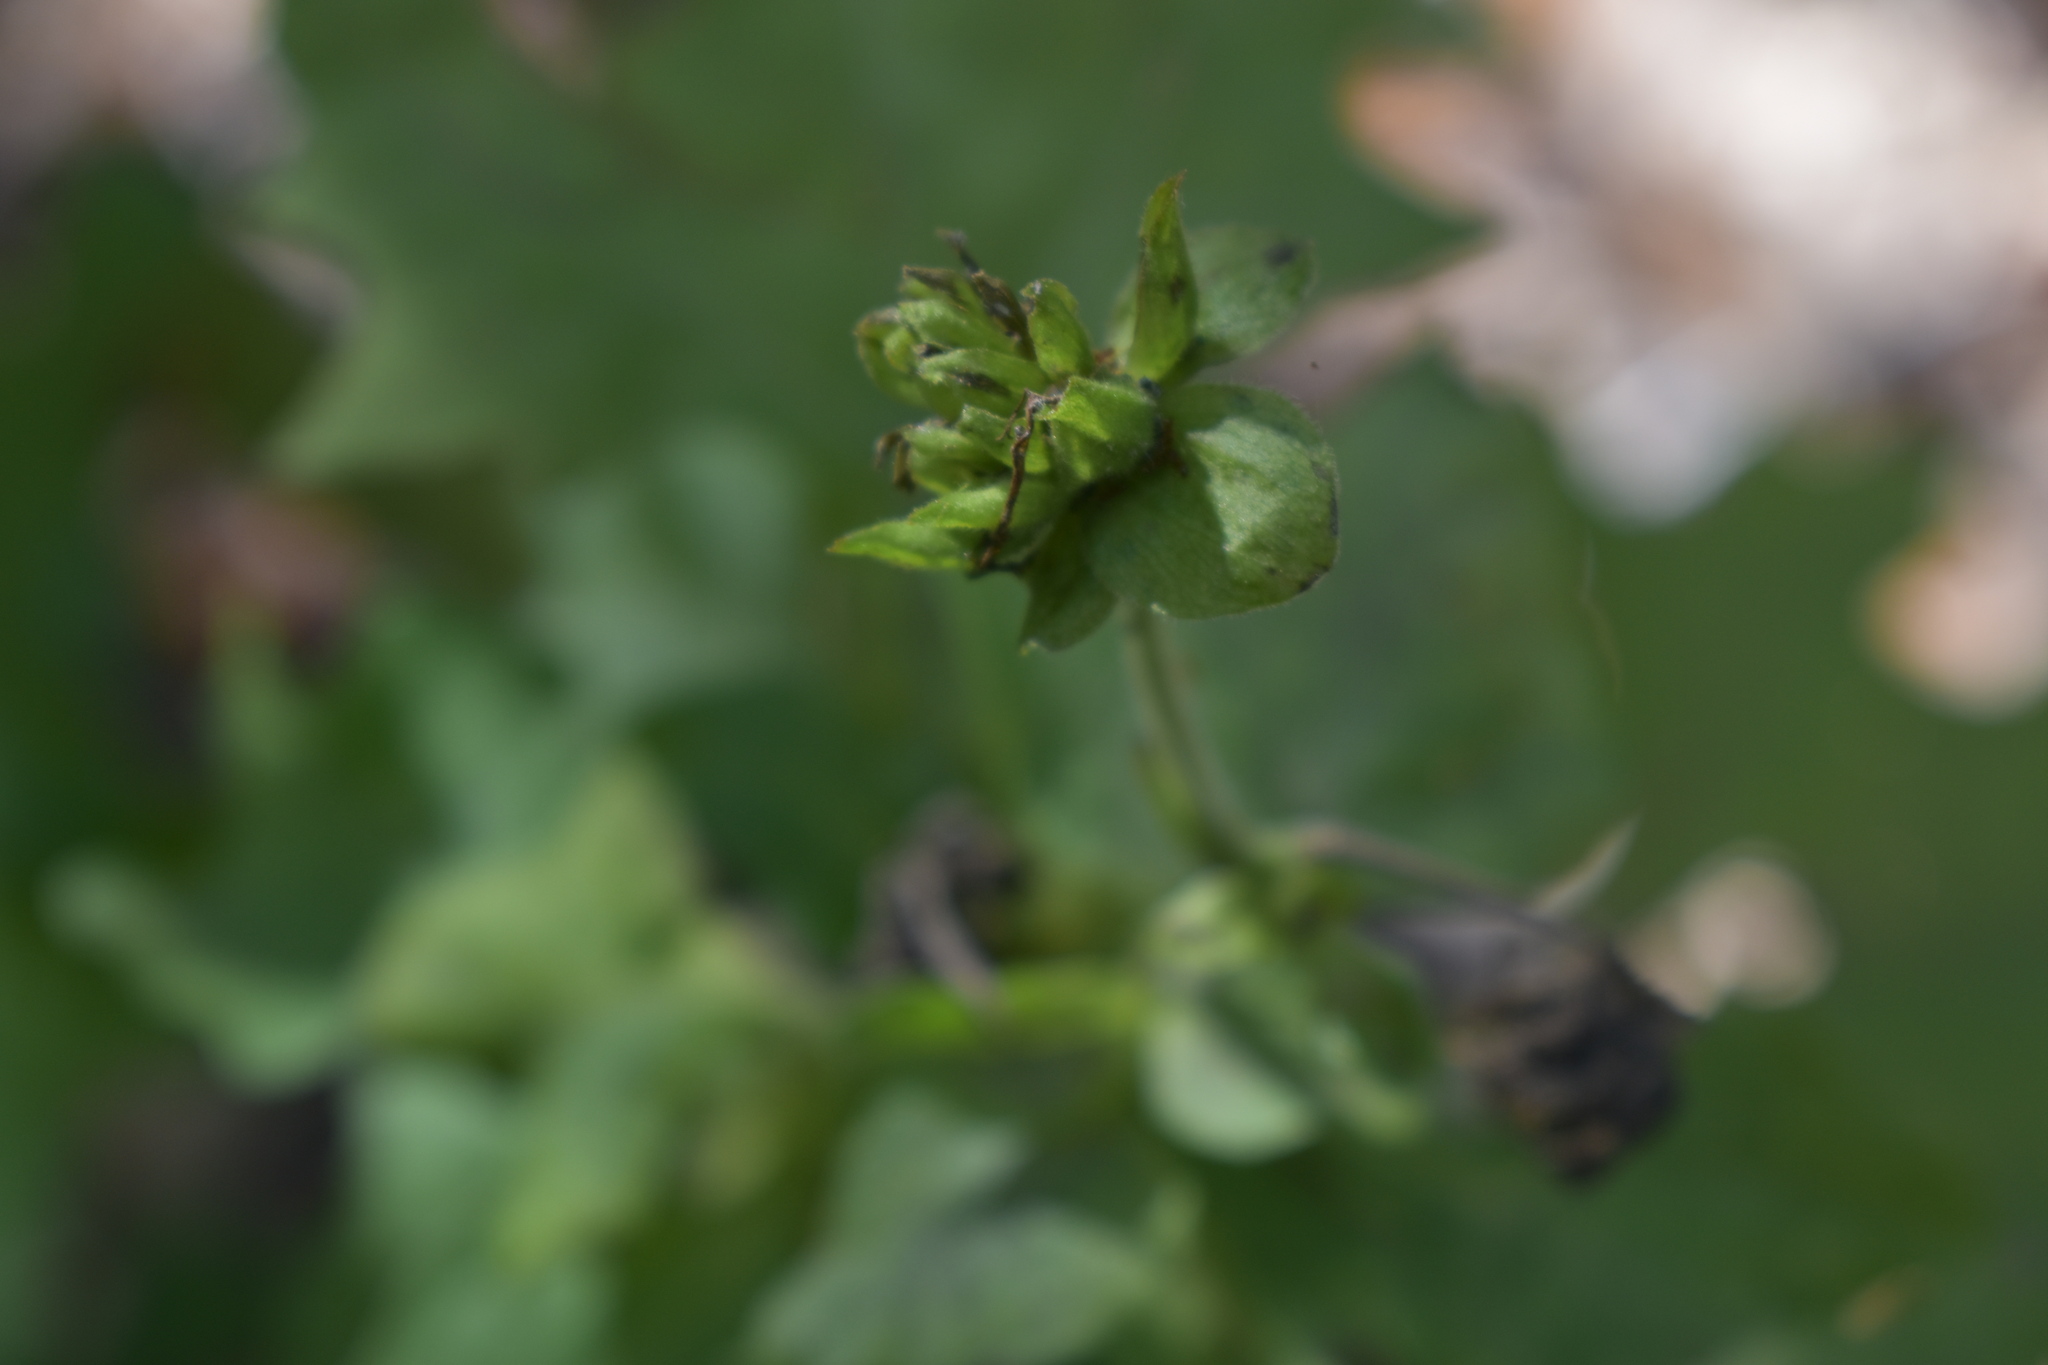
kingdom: Plantae
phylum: Tracheophyta
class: Magnoliopsida
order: Asterales
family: Asteraceae
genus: Smallanthus
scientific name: Smallanthus uvedalia
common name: Bear's-foot
